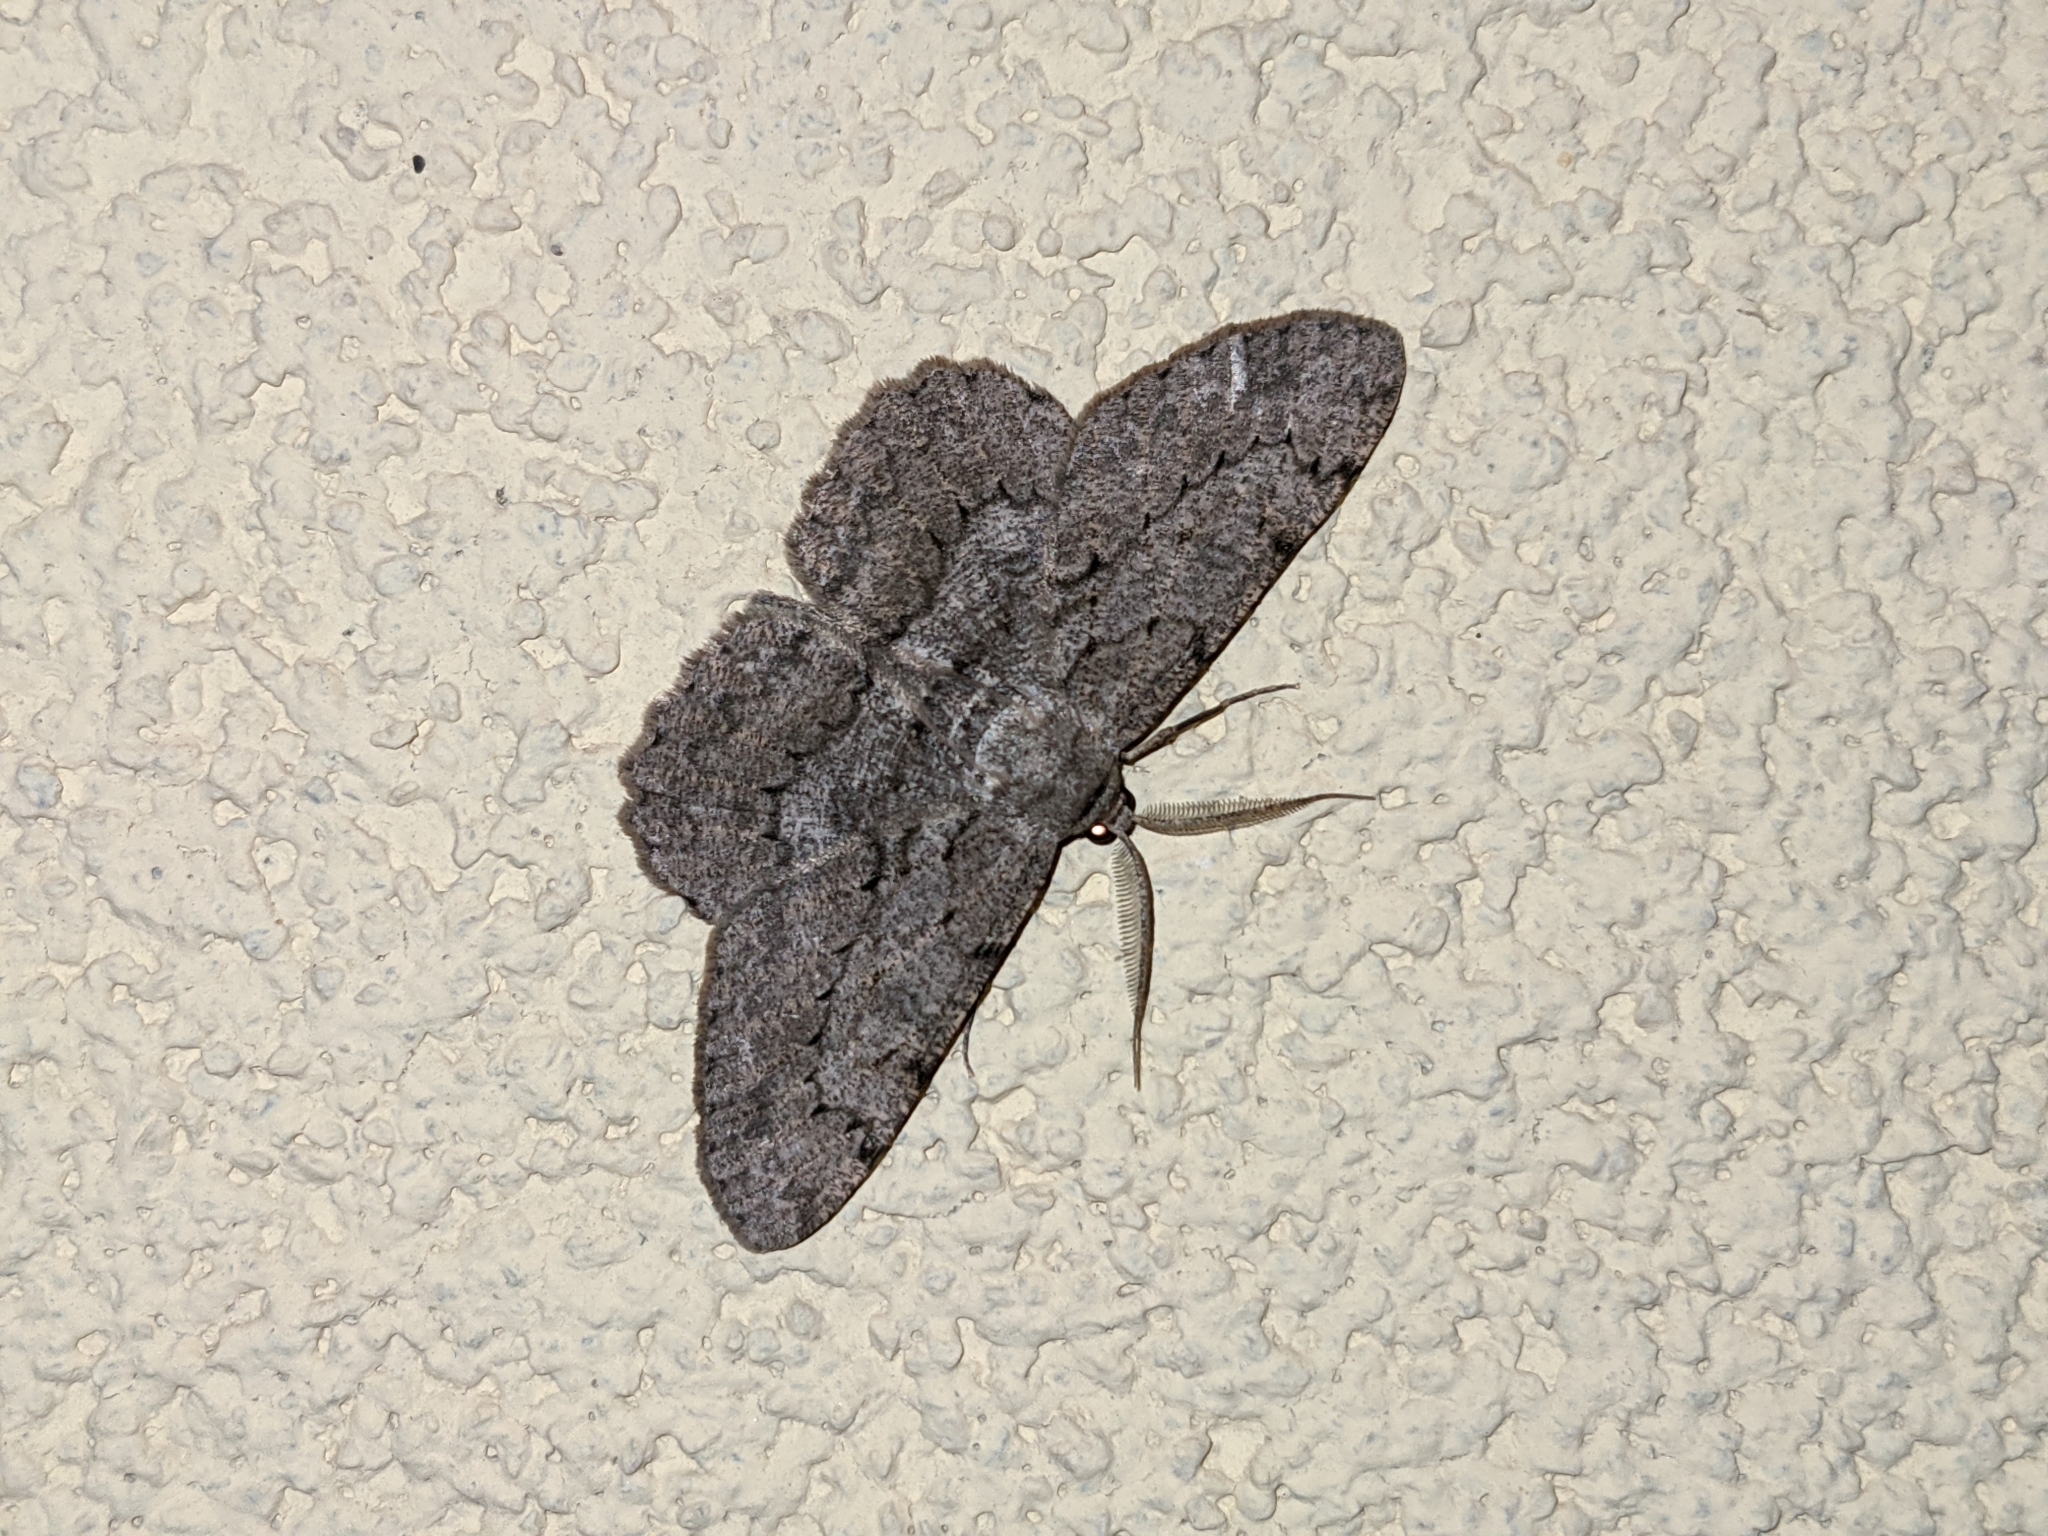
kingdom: Animalia
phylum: Arthropoda
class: Insecta
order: Lepidoptera
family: Geometridae
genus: Hypomecis
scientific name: Hypomecis punctinalis
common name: Pale oak beauty
